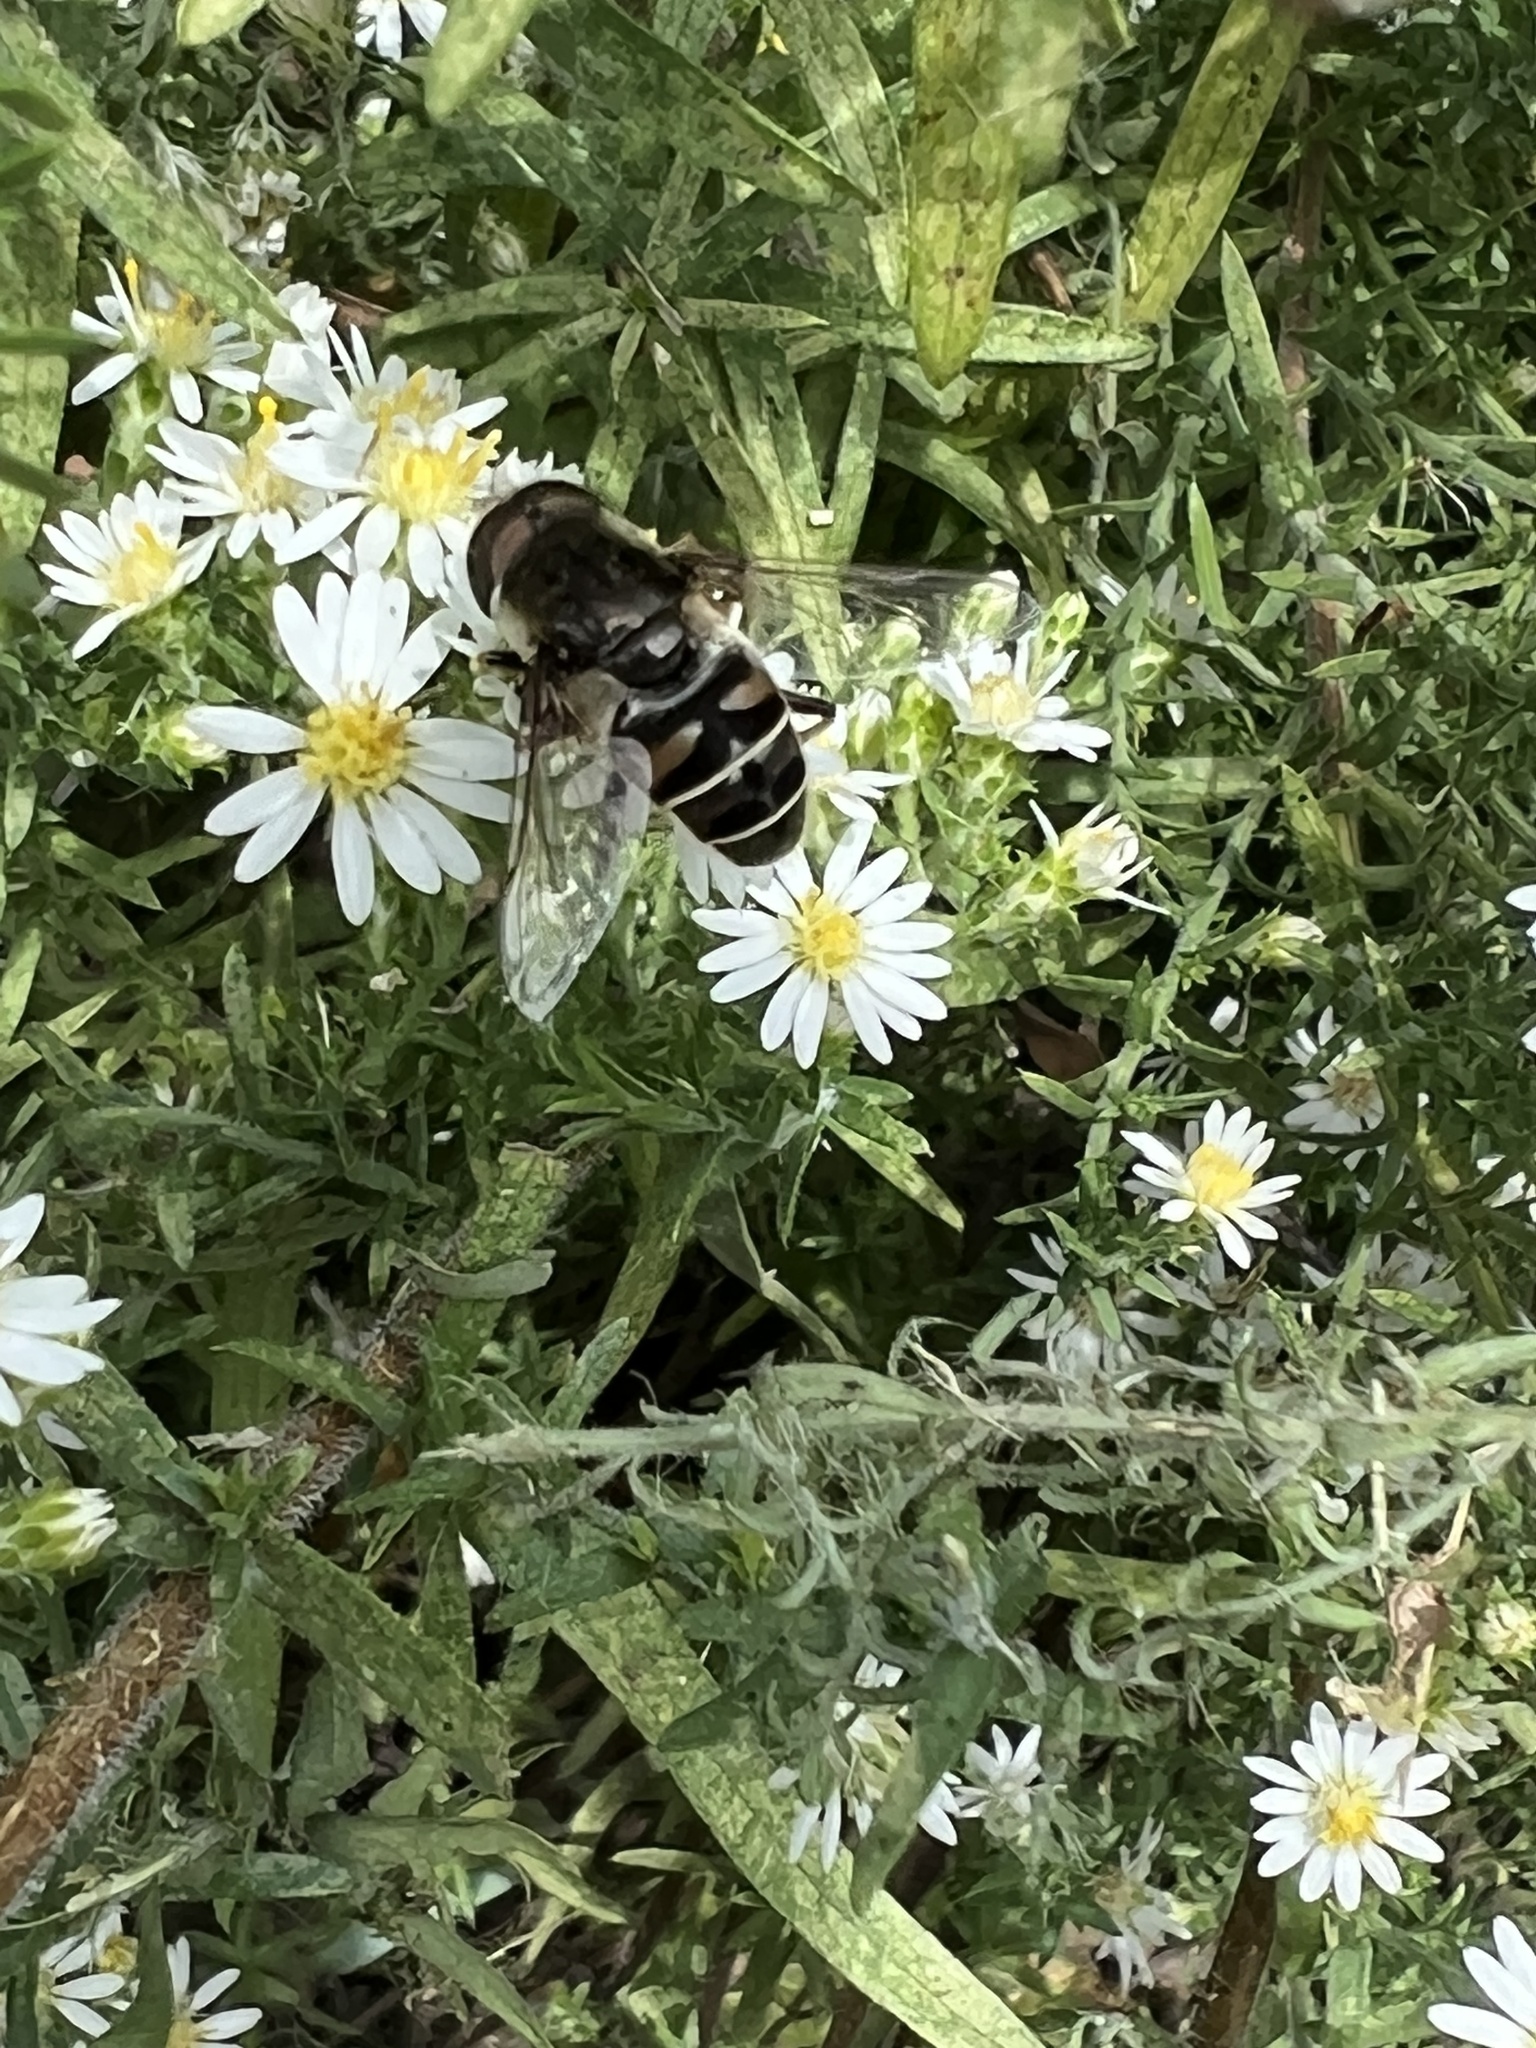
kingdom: Animalia
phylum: Arthropoda
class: Insecta
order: Diptera
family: Syrphidae
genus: Eristalis
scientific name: Eristalis dimidiata
